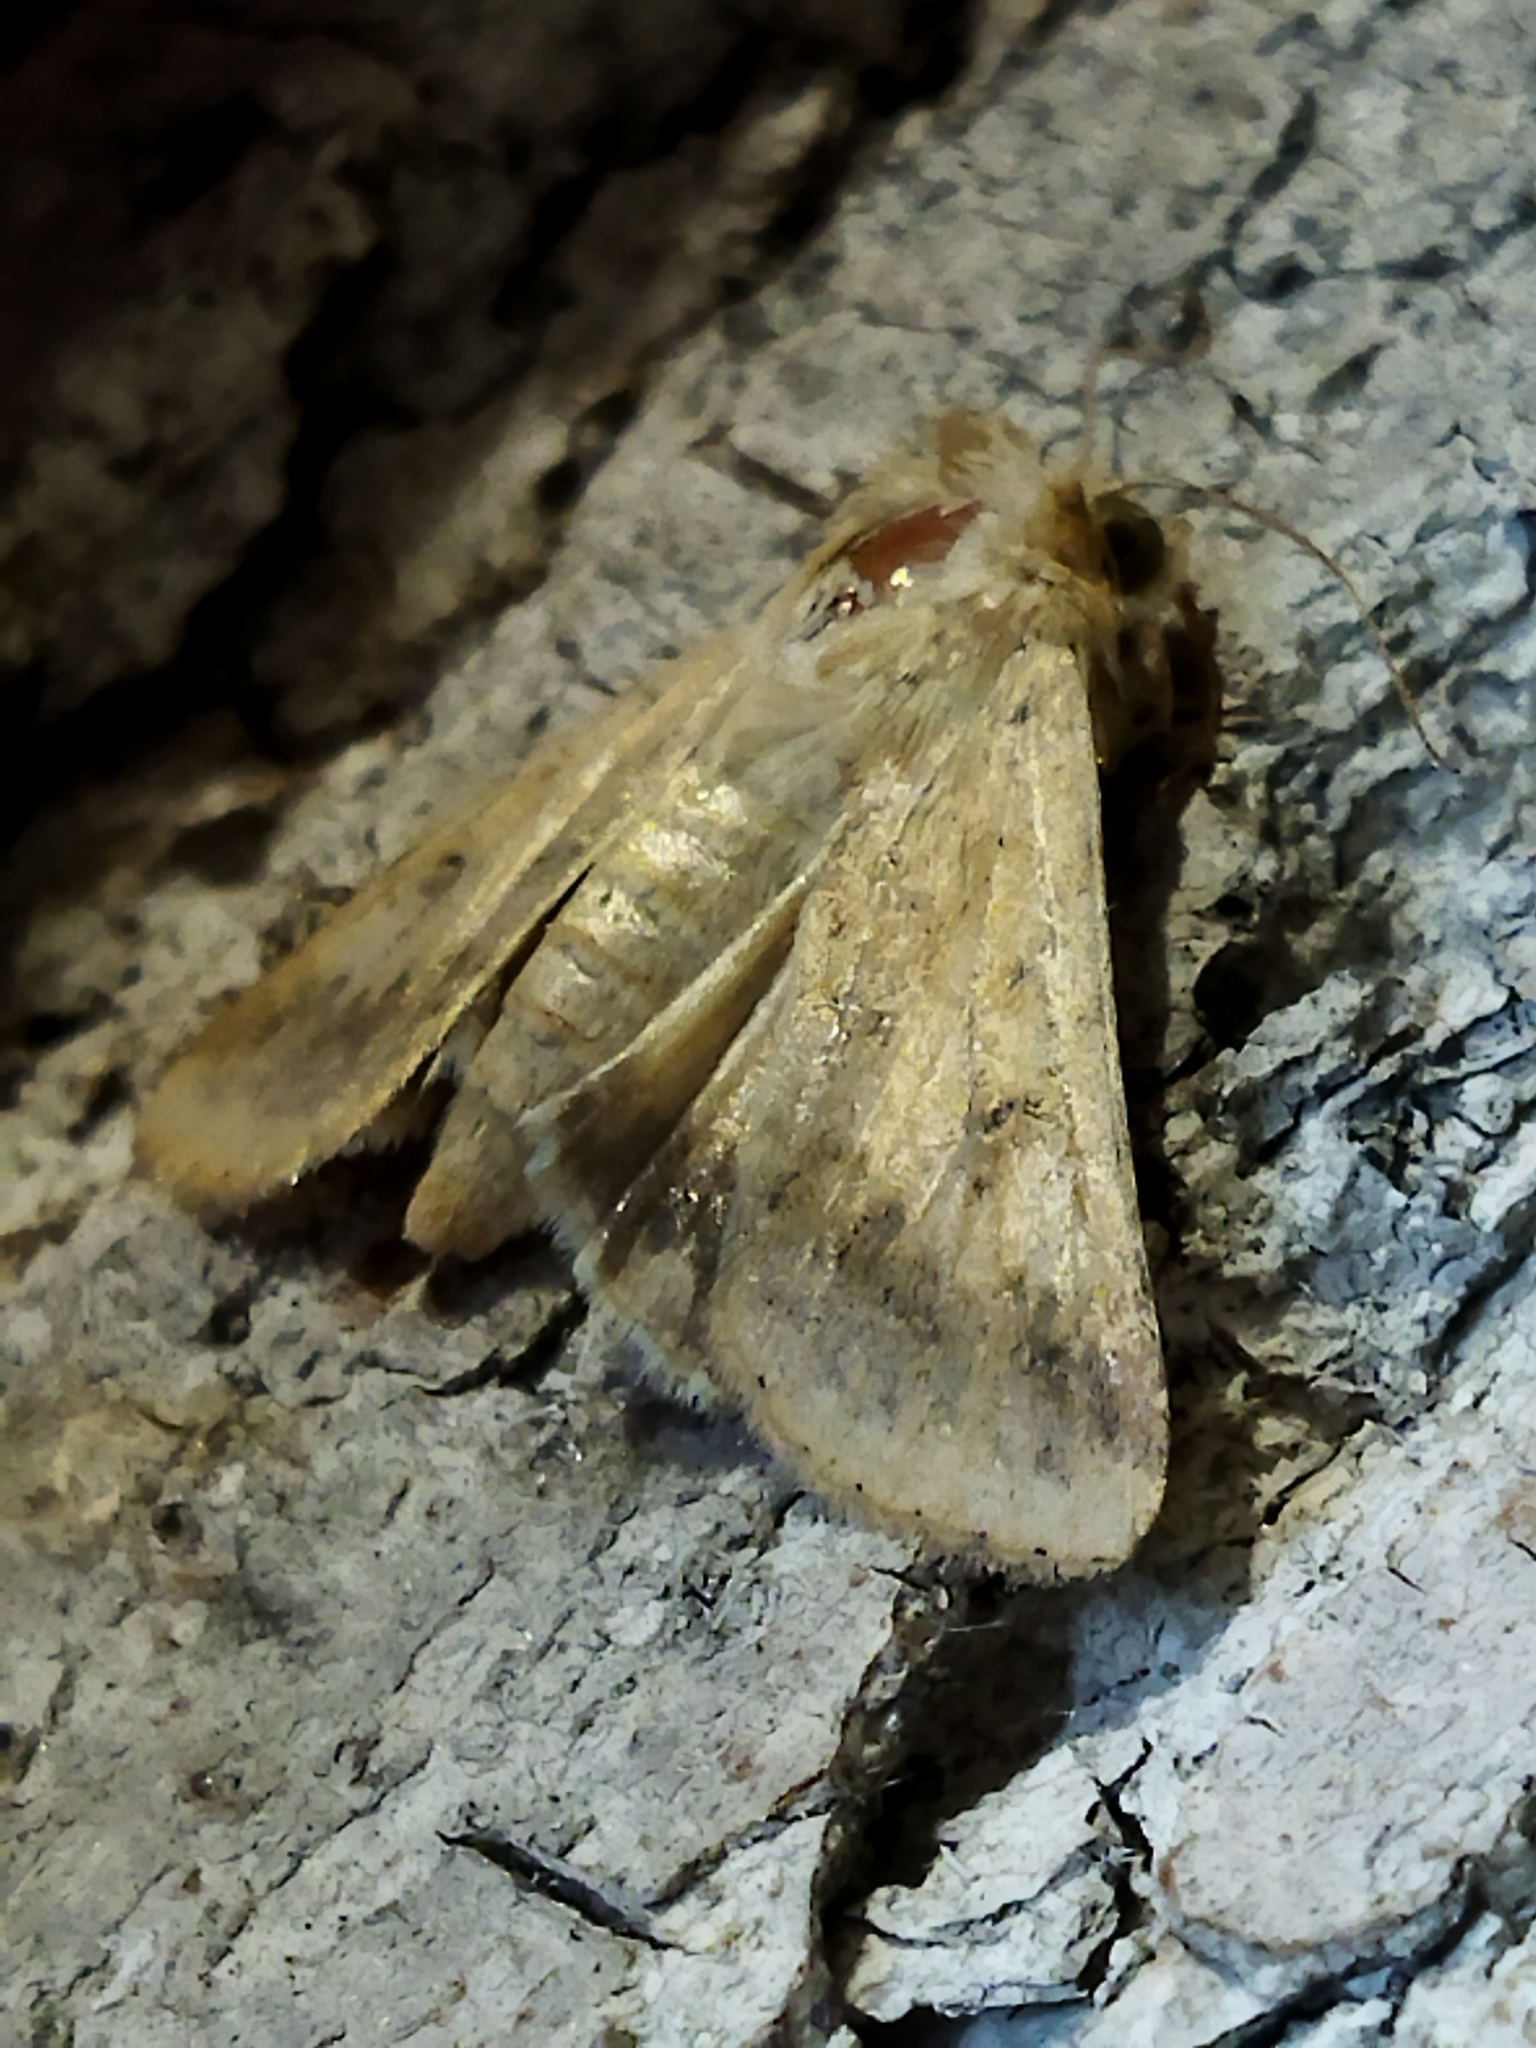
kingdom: Animalia
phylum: Arthropoda
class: Insecta
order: Lepidoptera
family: Noctuidae
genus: Helicoverpa
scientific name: Helicoverpa armigera
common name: Cotton bollworm
